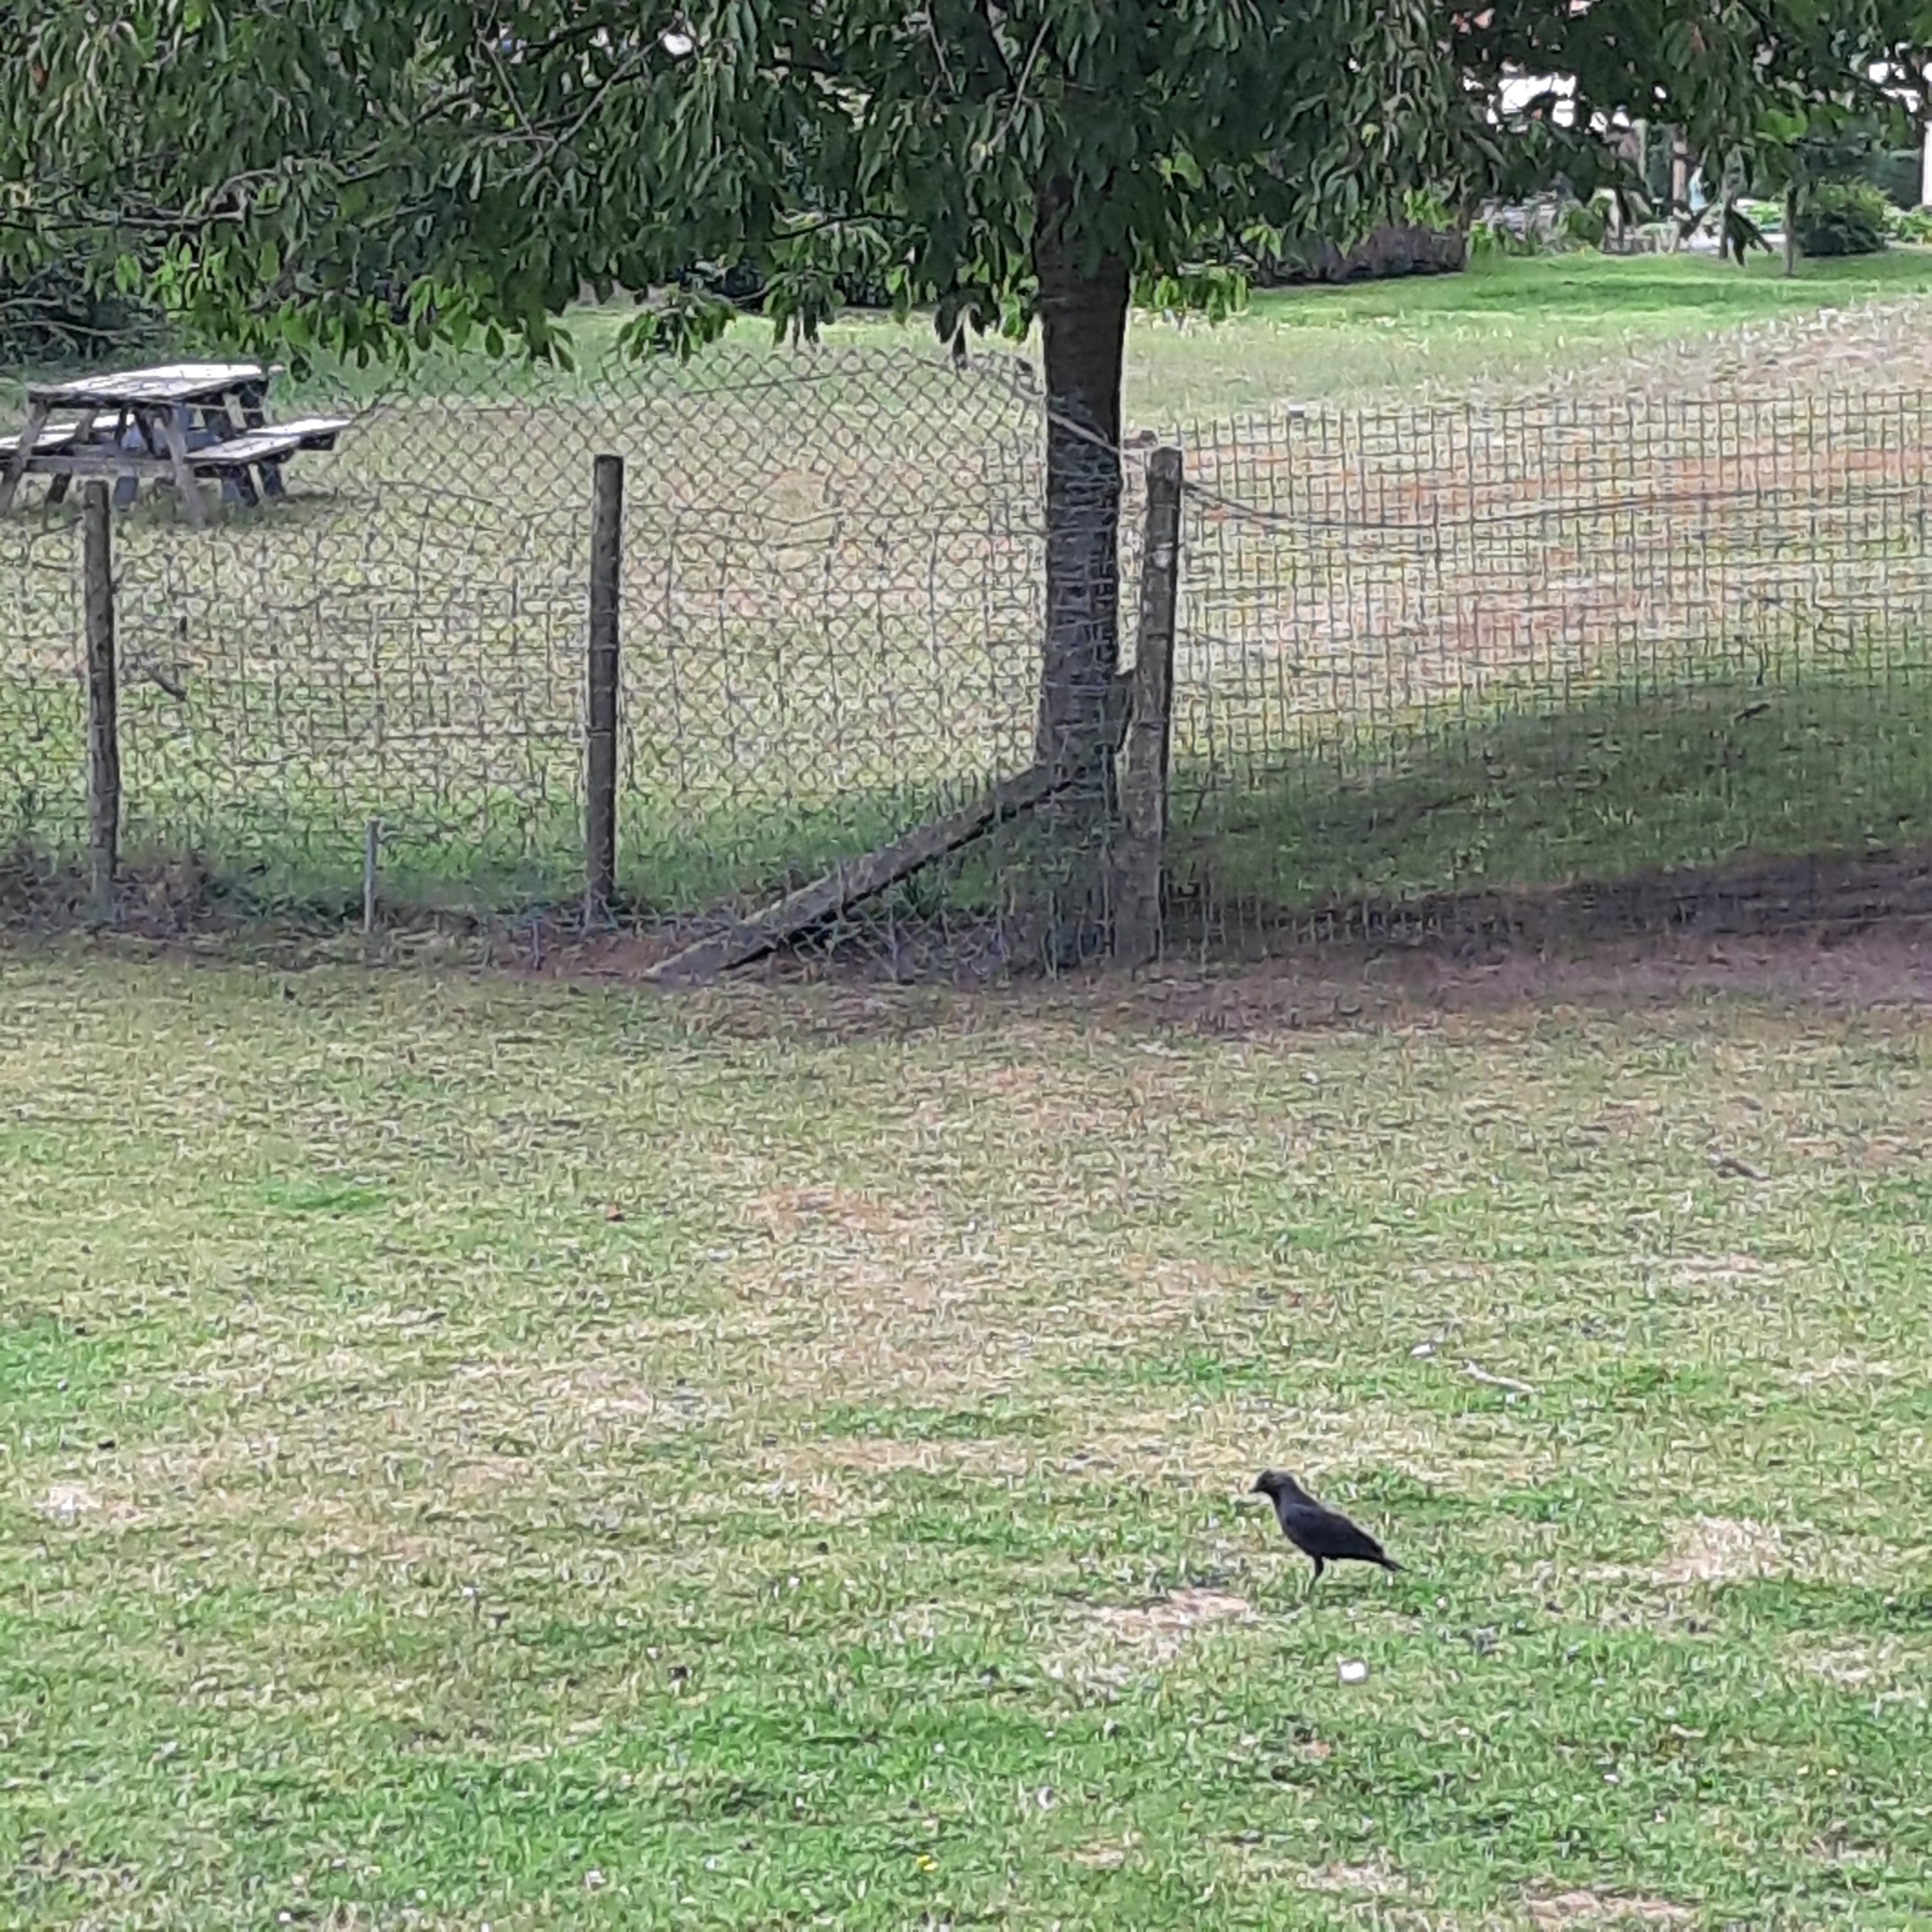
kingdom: Animalia
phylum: Chordata
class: Aves
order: Passeriformes
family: Corvidae
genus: Coloeus
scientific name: Coloeus monedula
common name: Western jackdaw
